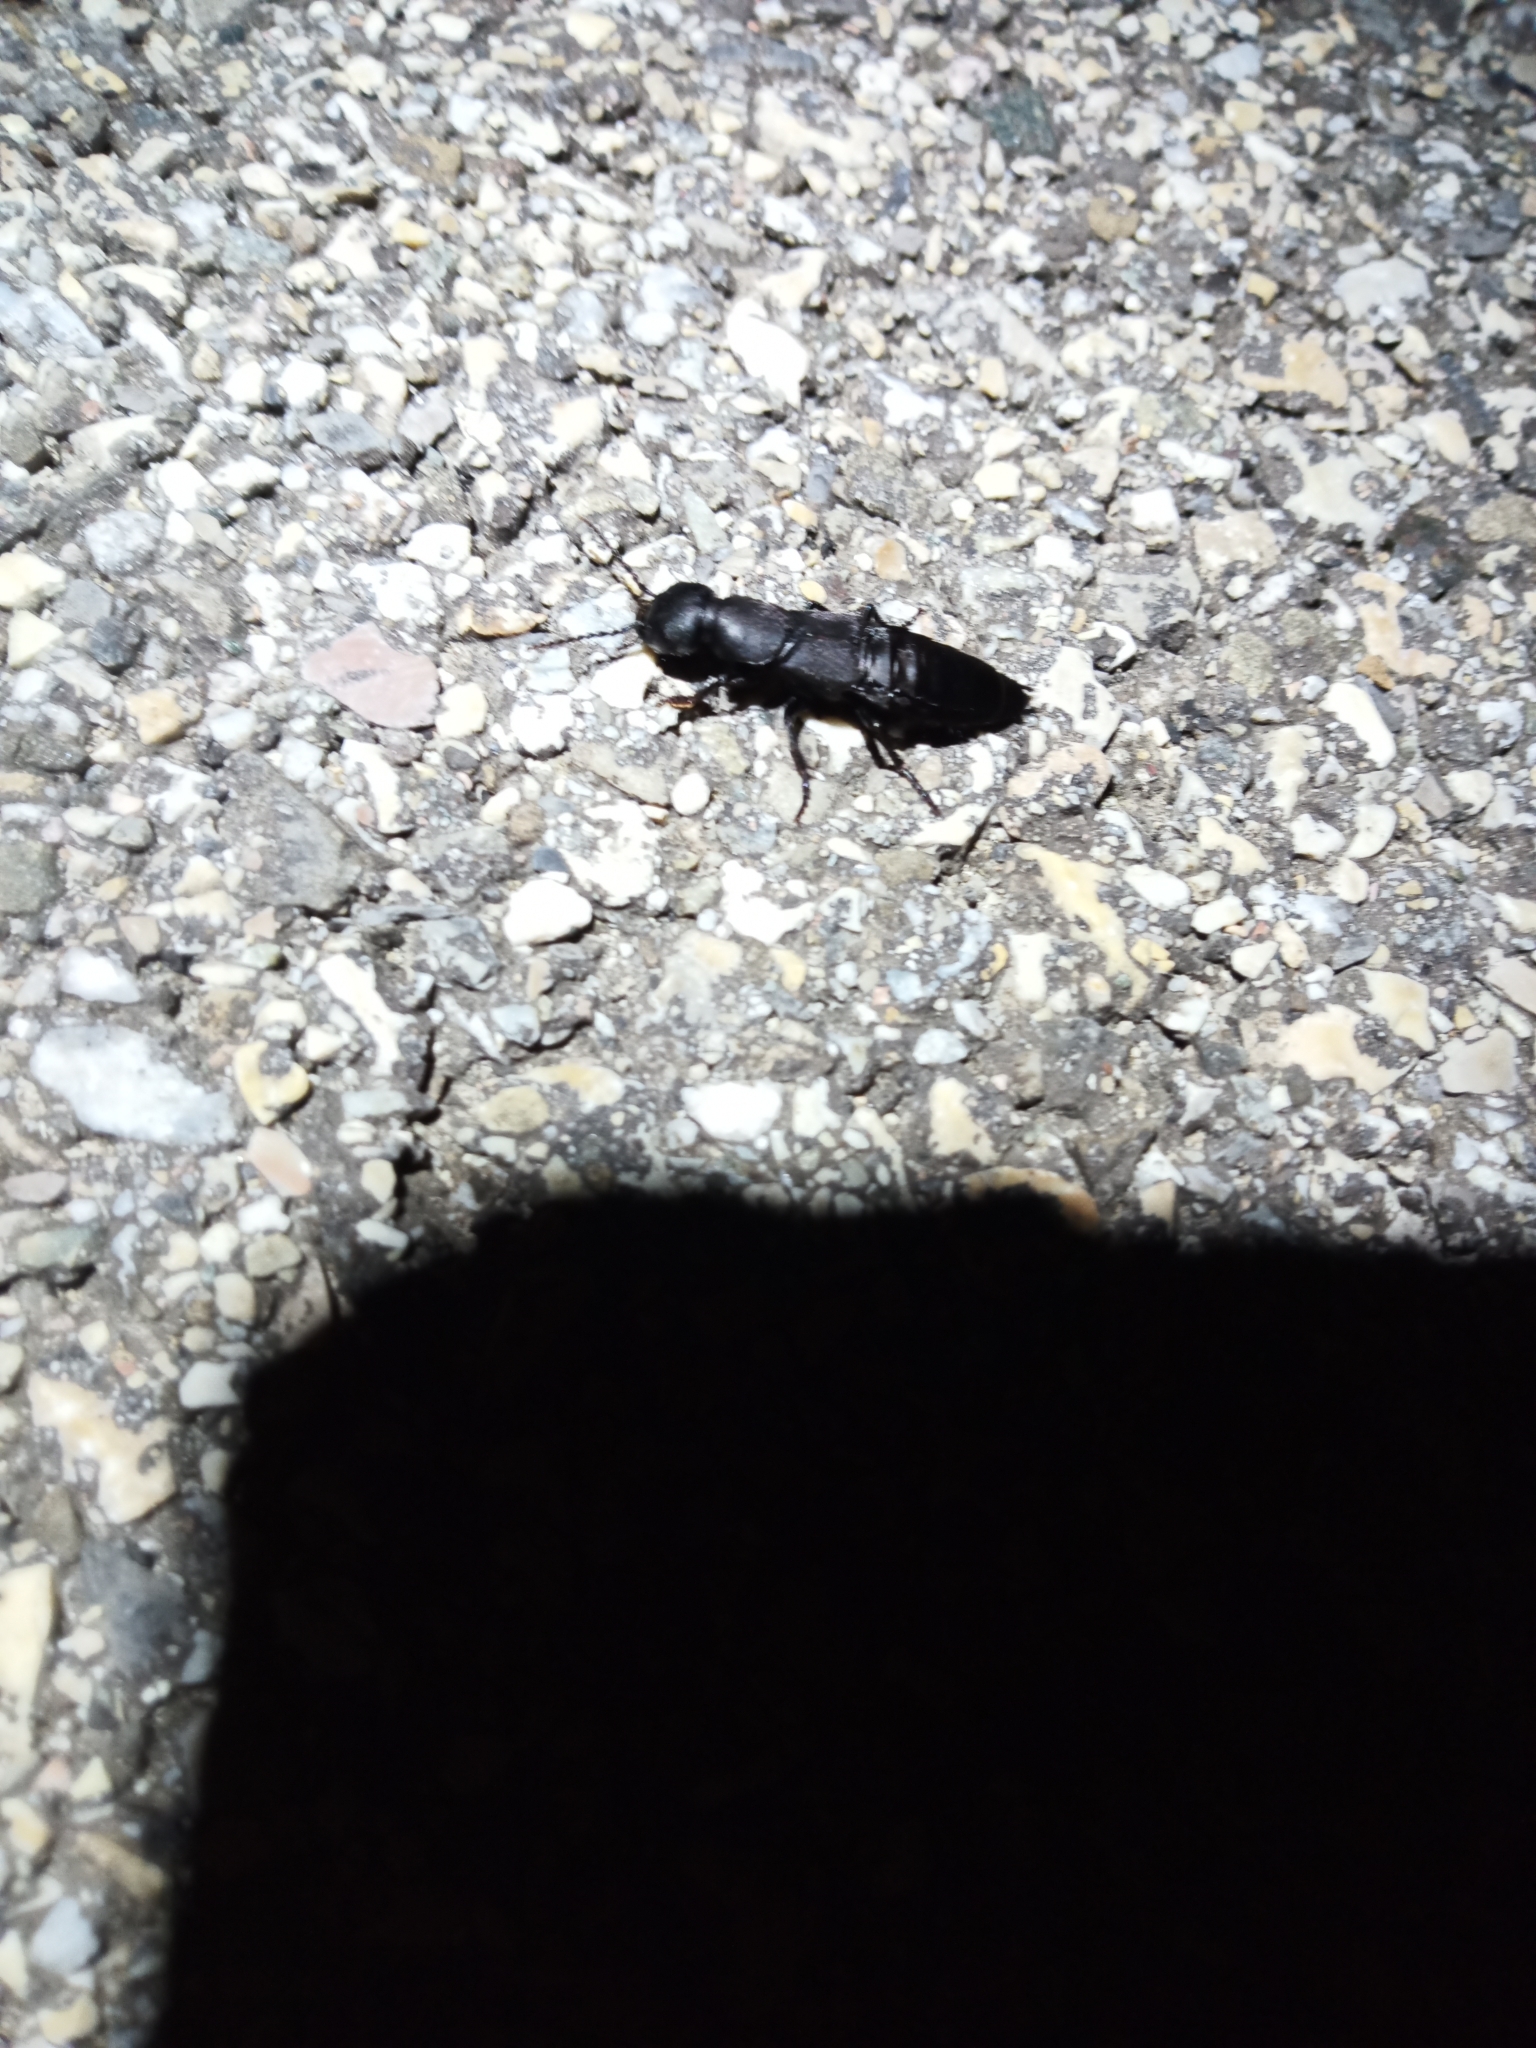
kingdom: Animalia
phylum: Arthropoda
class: Insecta
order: Coleoptera
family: Staphylinidae
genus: Ocypus
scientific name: Ocypus olens
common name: Devil's coach-horse
